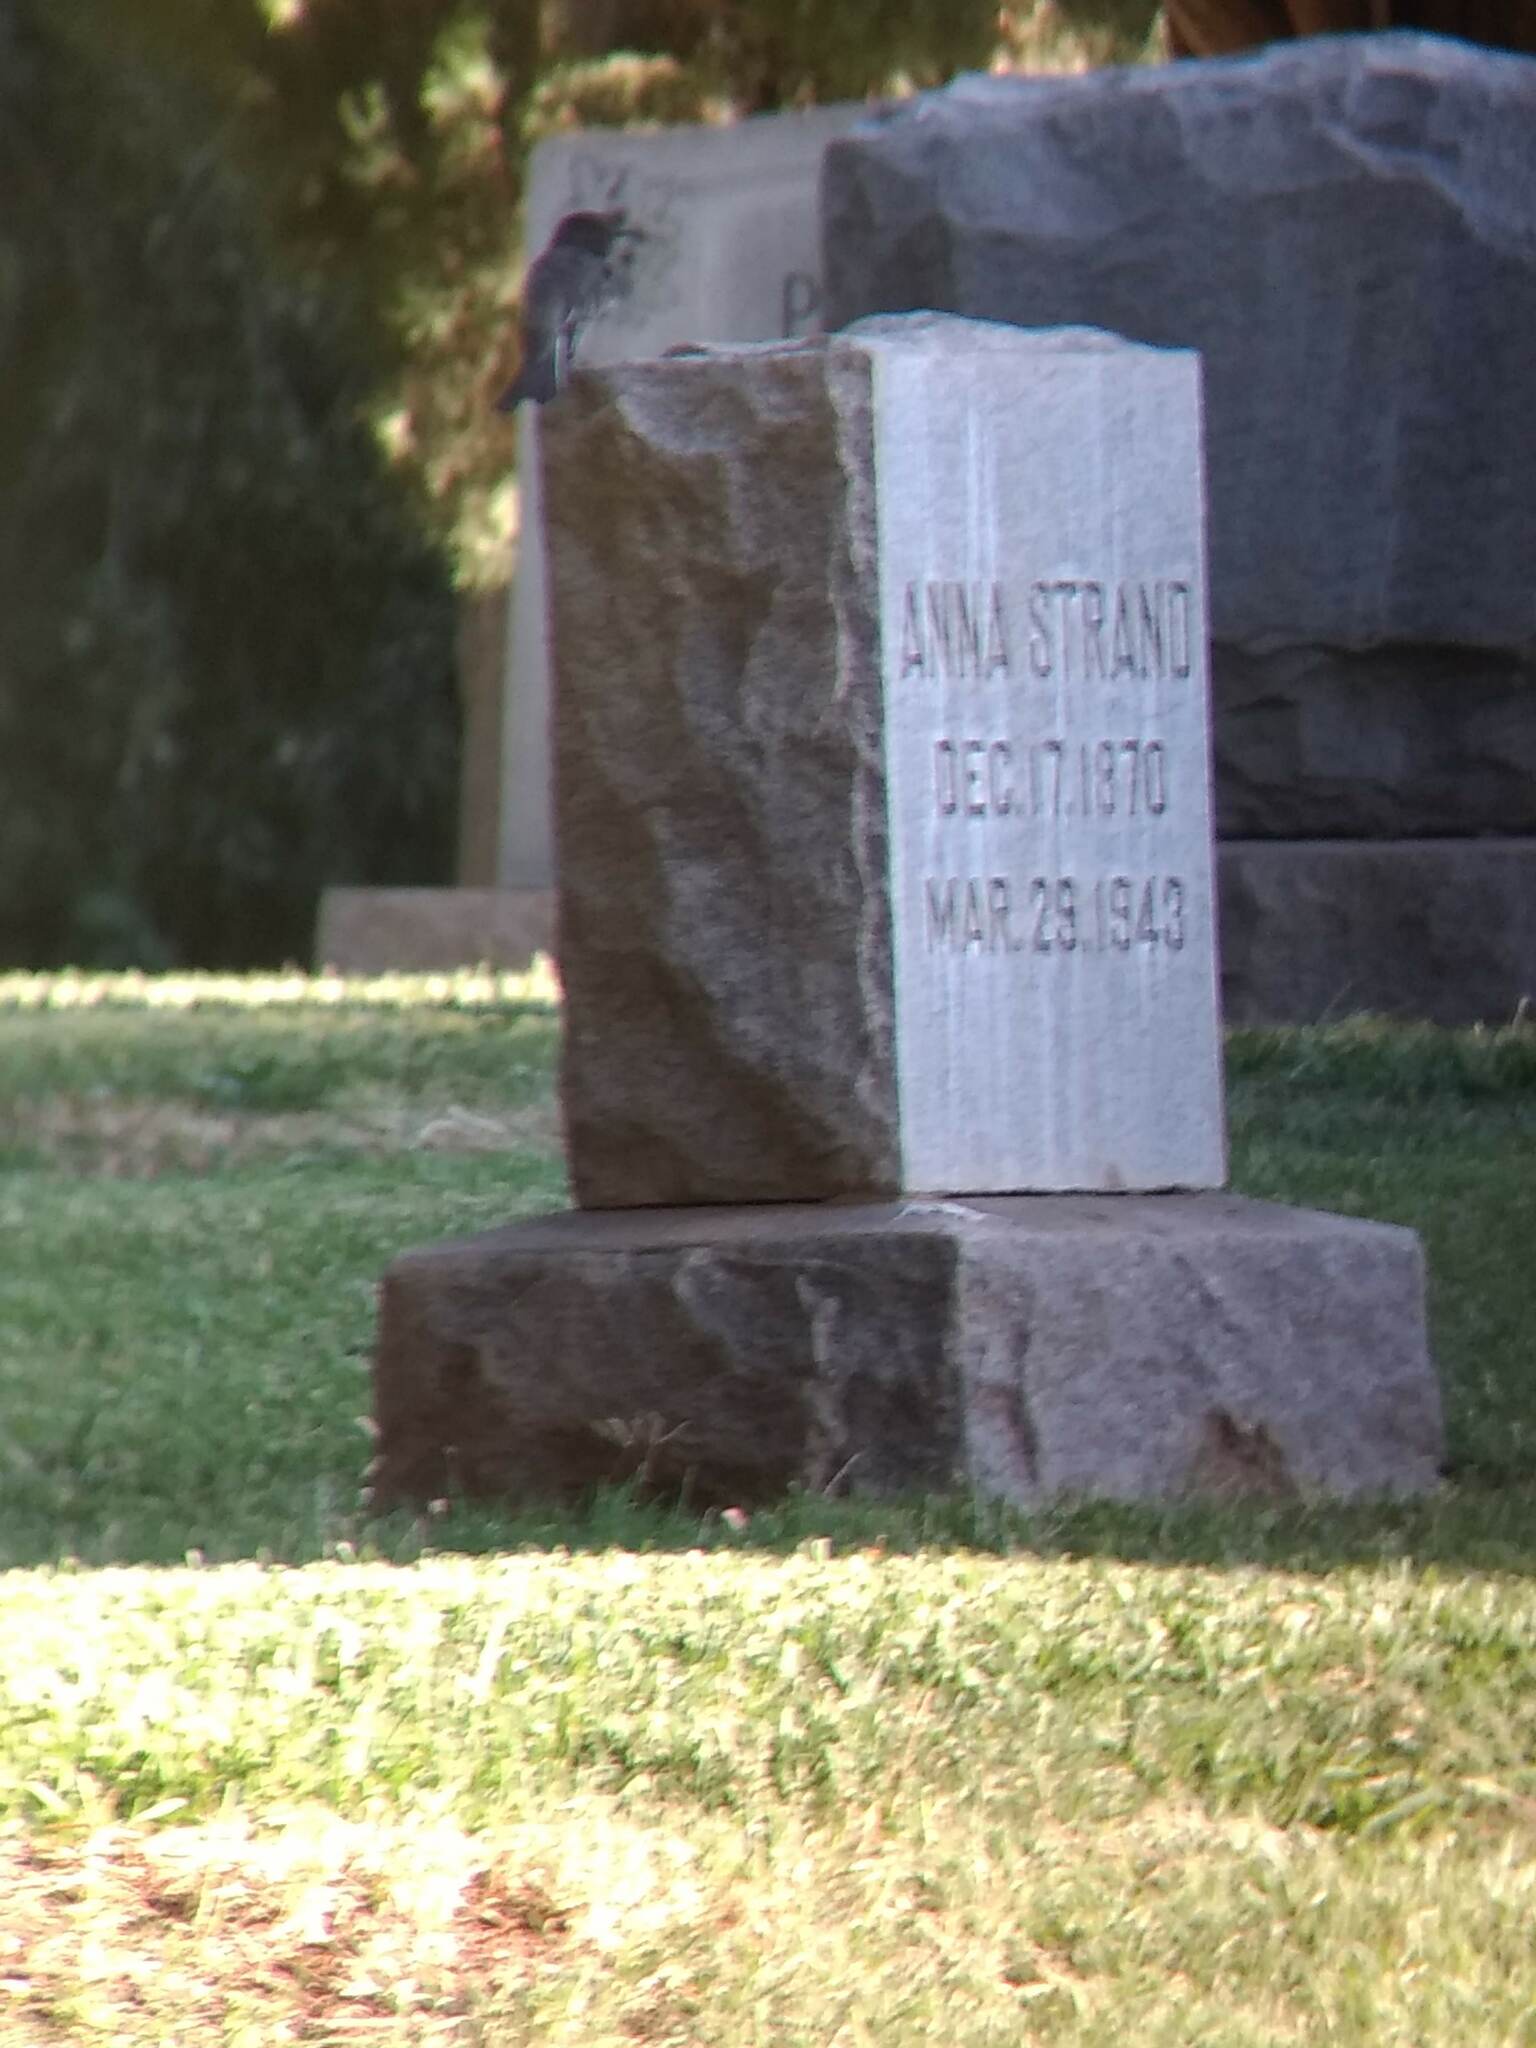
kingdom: Animalia
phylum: Chordata
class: Aves
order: Passeriformes
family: Tyrannidae
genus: Sayornis
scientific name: Sayornis nigricans
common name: Black phoebe
